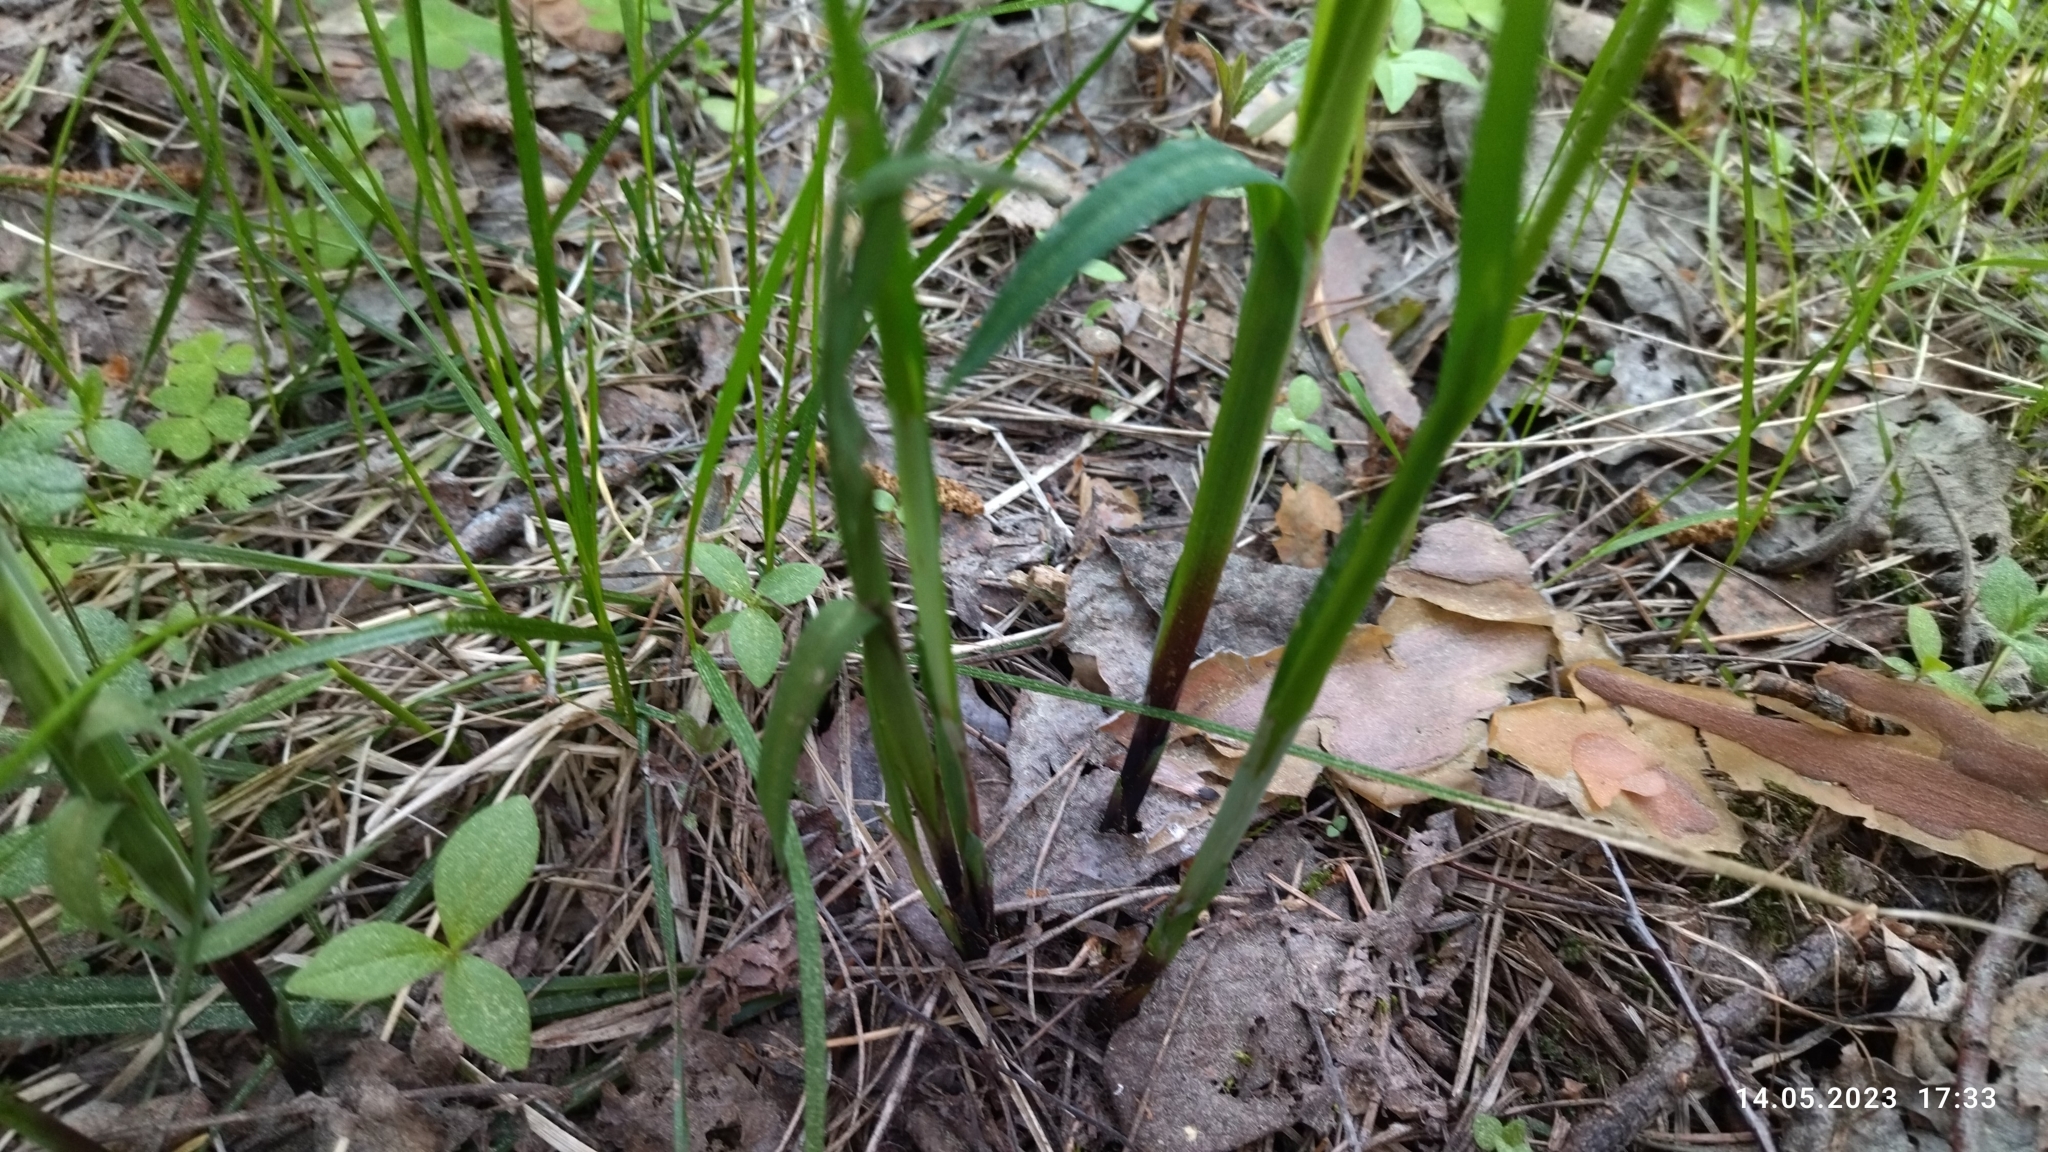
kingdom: Plantae
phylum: Tracheophyta
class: Liliopsida
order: Poales
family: Cyperaceae
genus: Carex
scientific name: Carex pilosa
